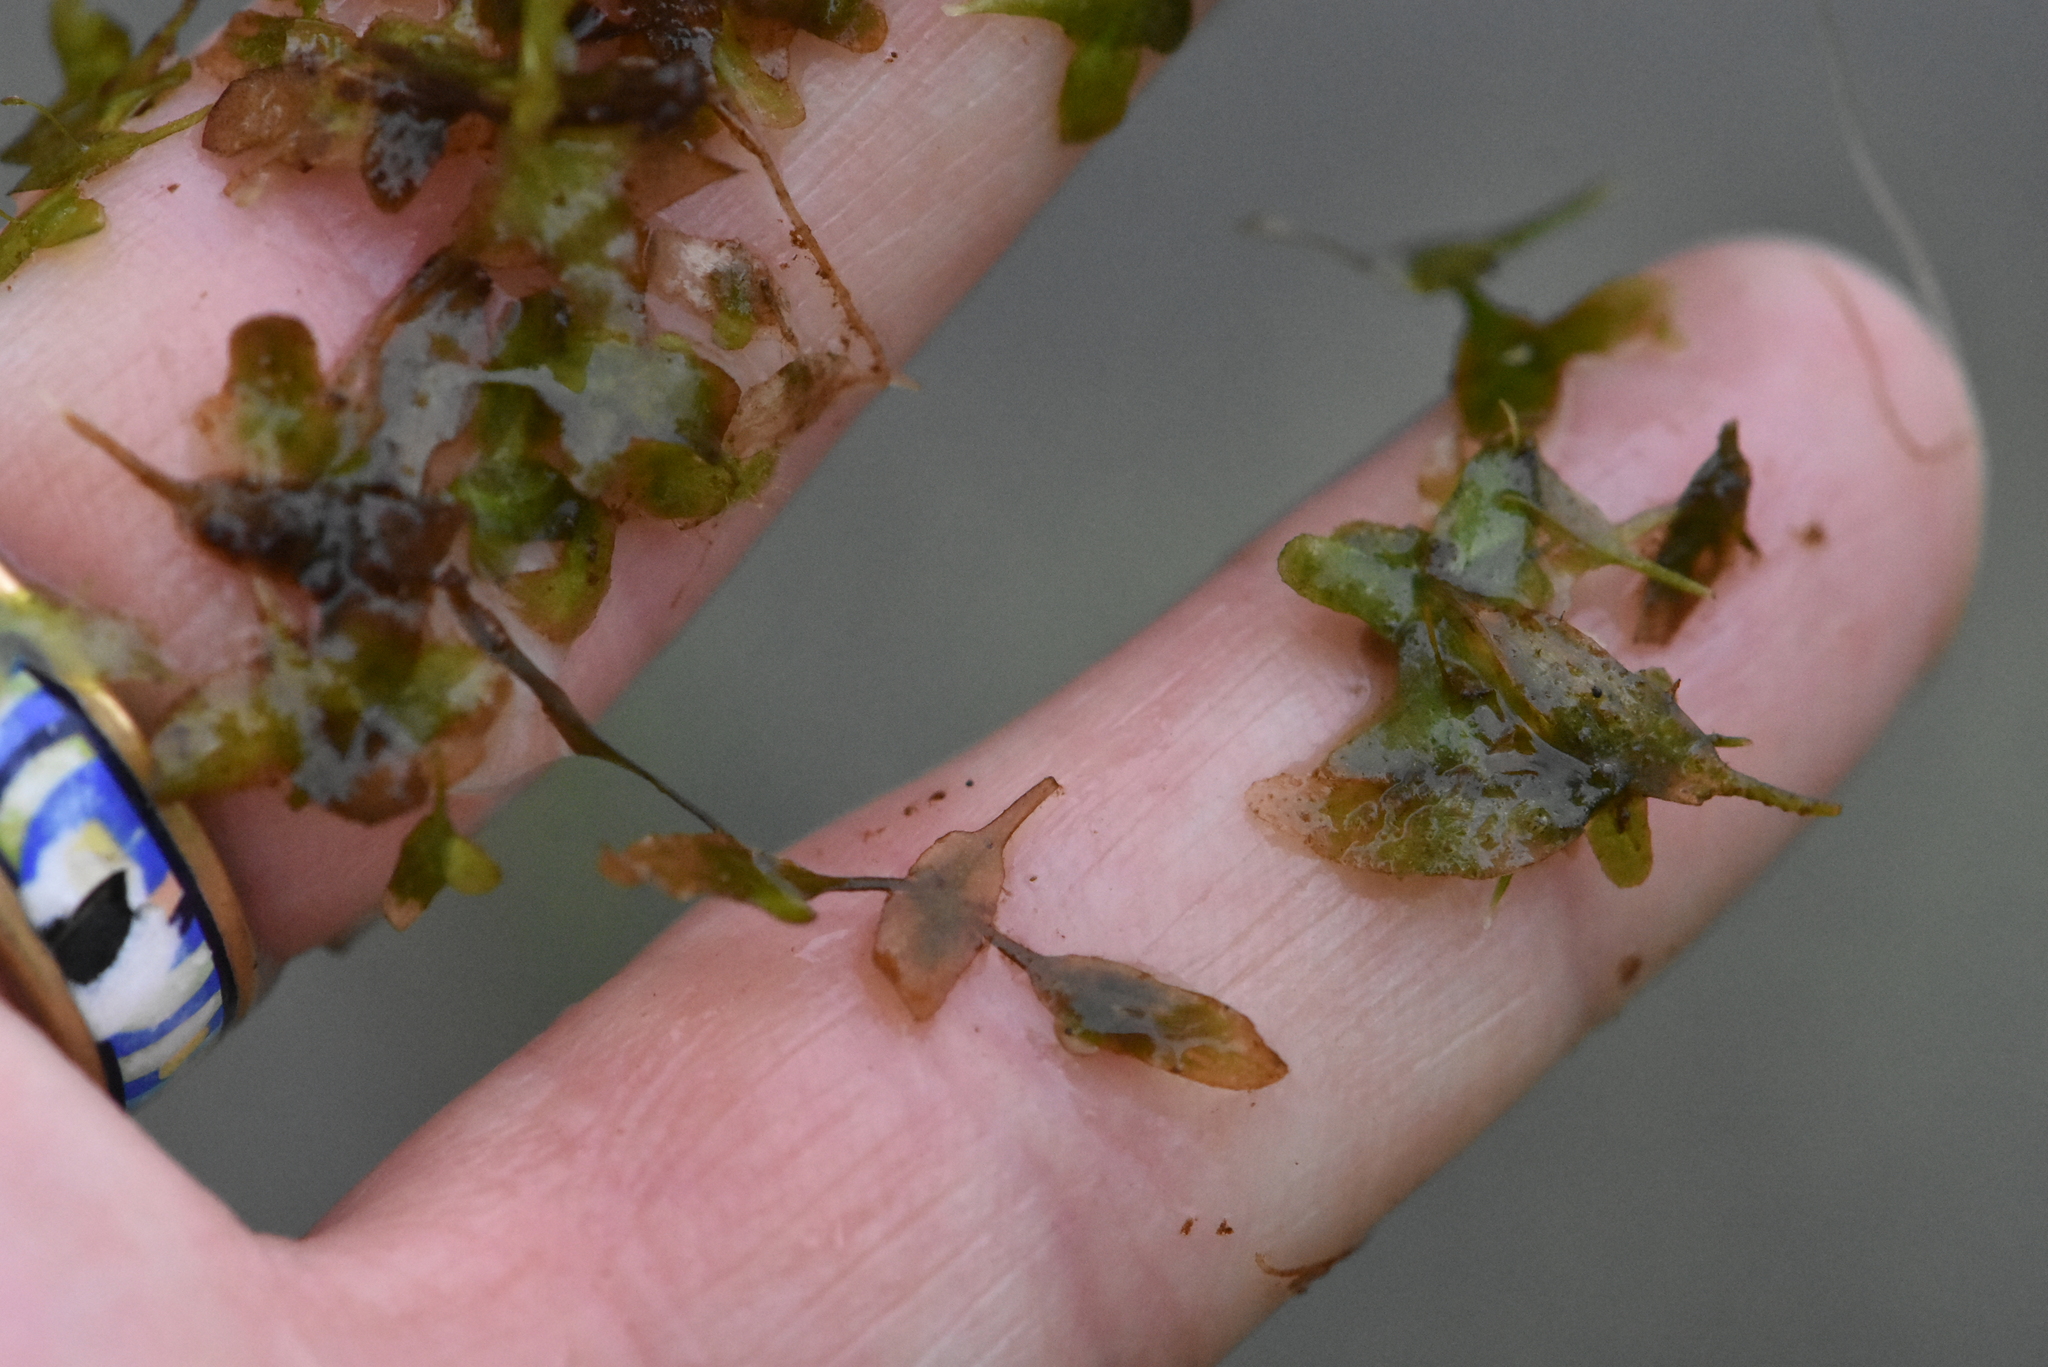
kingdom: Plantae
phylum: Tracheophyta
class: Liliopsida
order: Alismatales
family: Araceae
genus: Lemna
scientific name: Lemna trisulca
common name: Ivy-leaved duckweed
